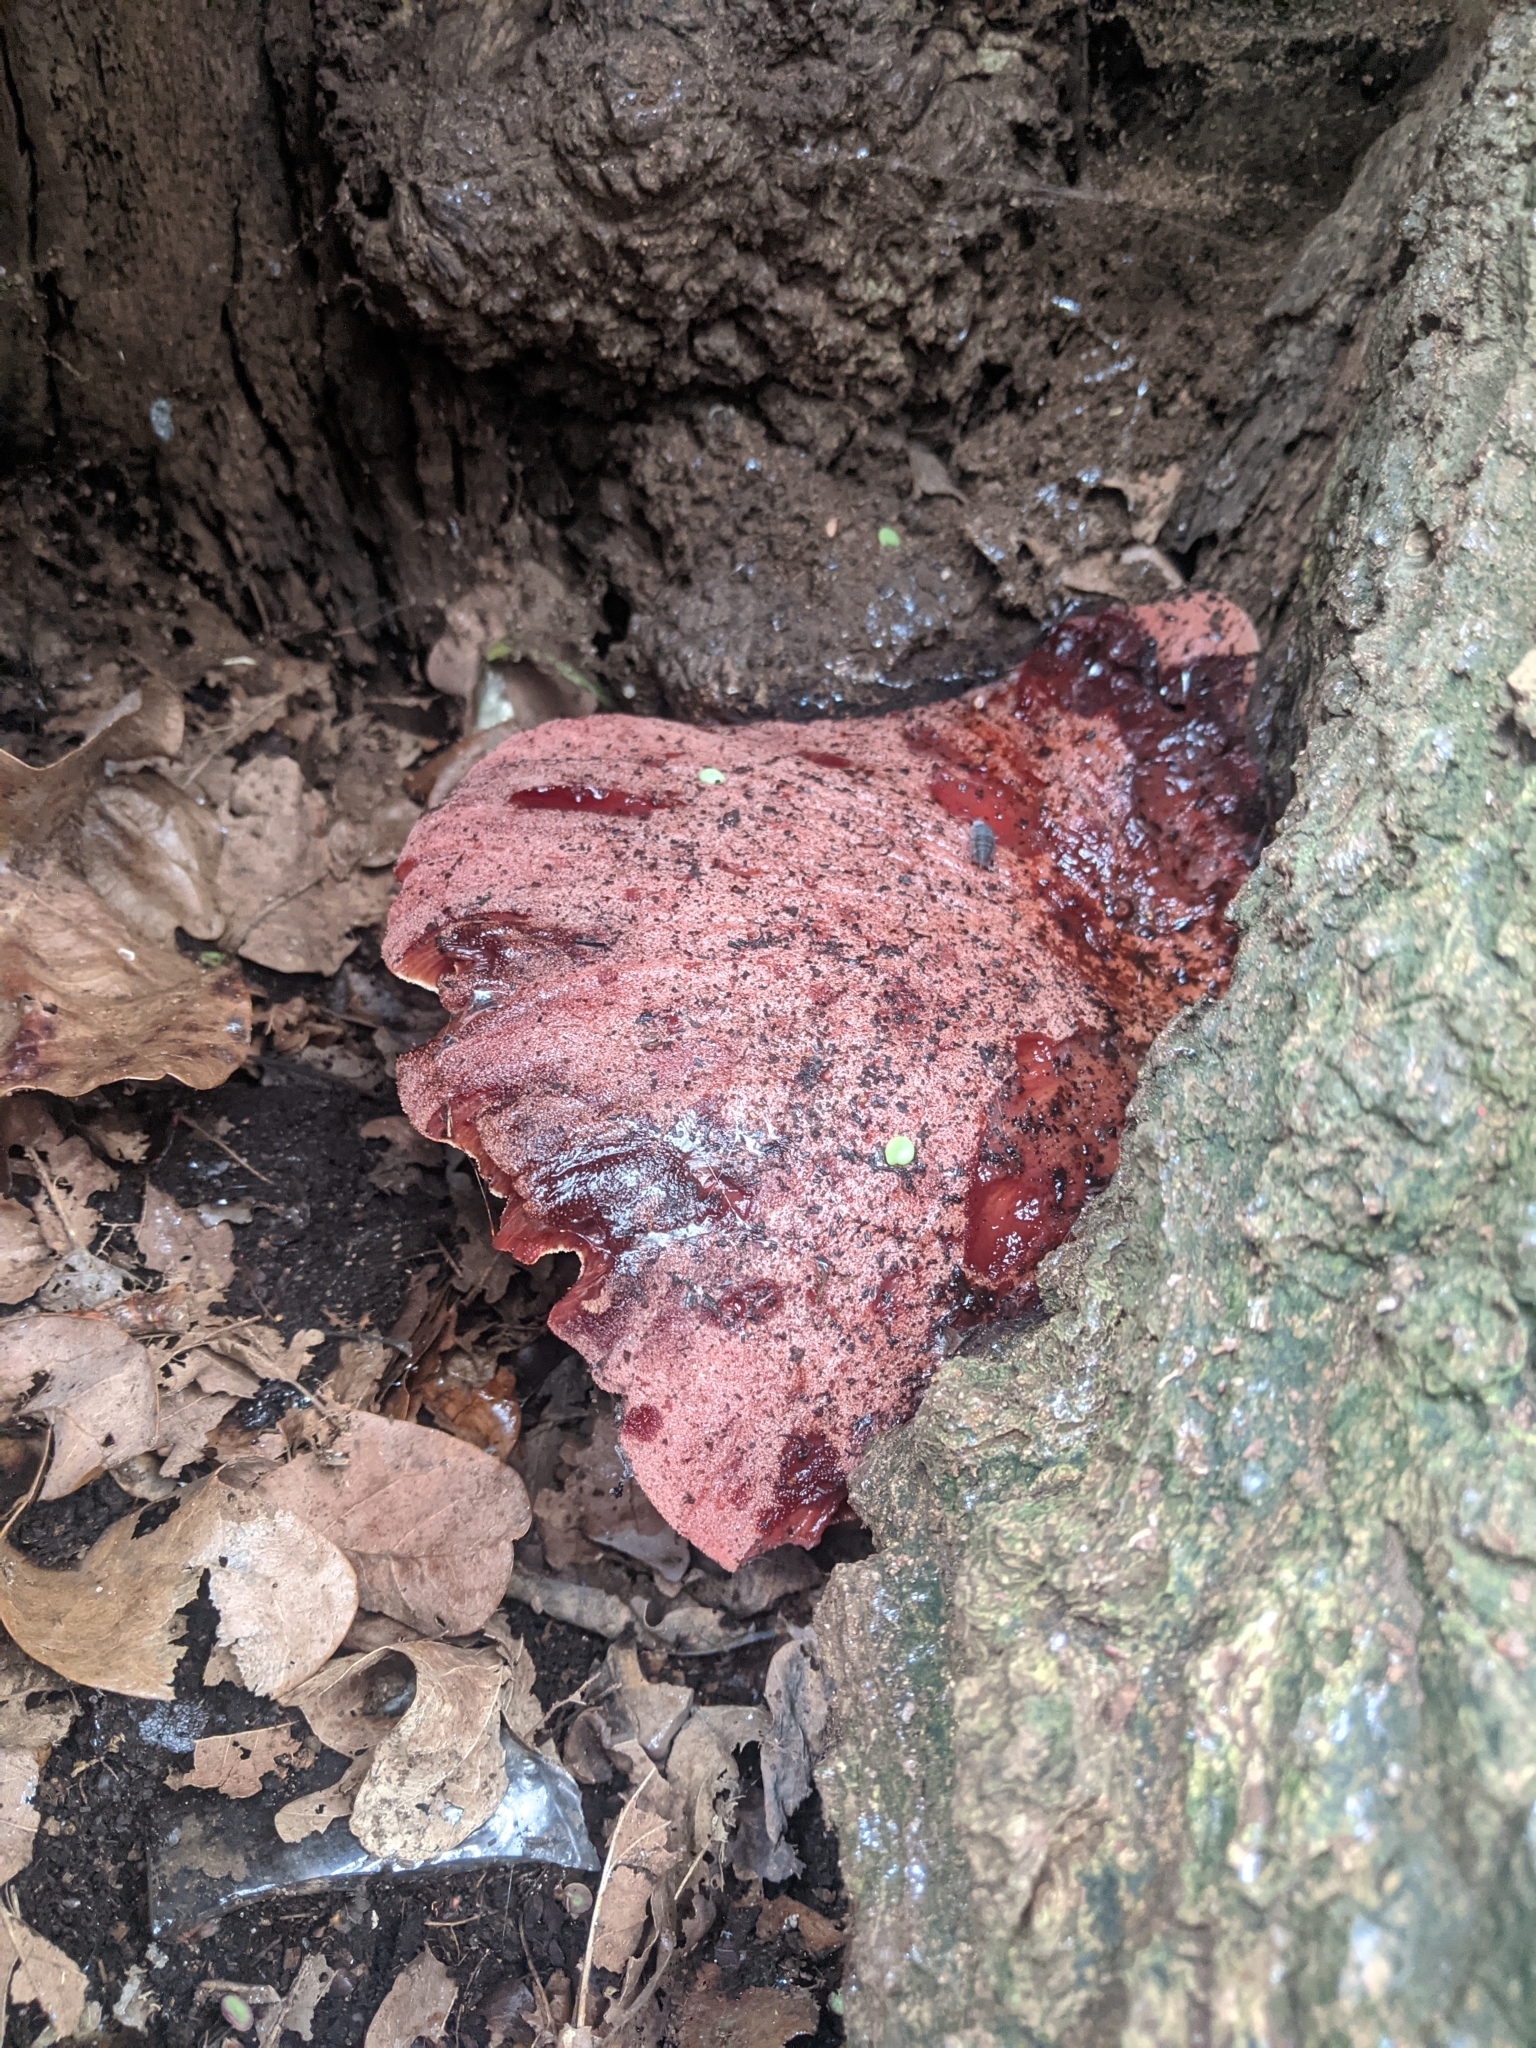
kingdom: Fungi
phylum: Basidiomycota
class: Agaricomycetes
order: Agaricales
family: Fistulinaceae
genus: Fistulina
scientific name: Fistulina hepatica
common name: Beef-steak fungus
